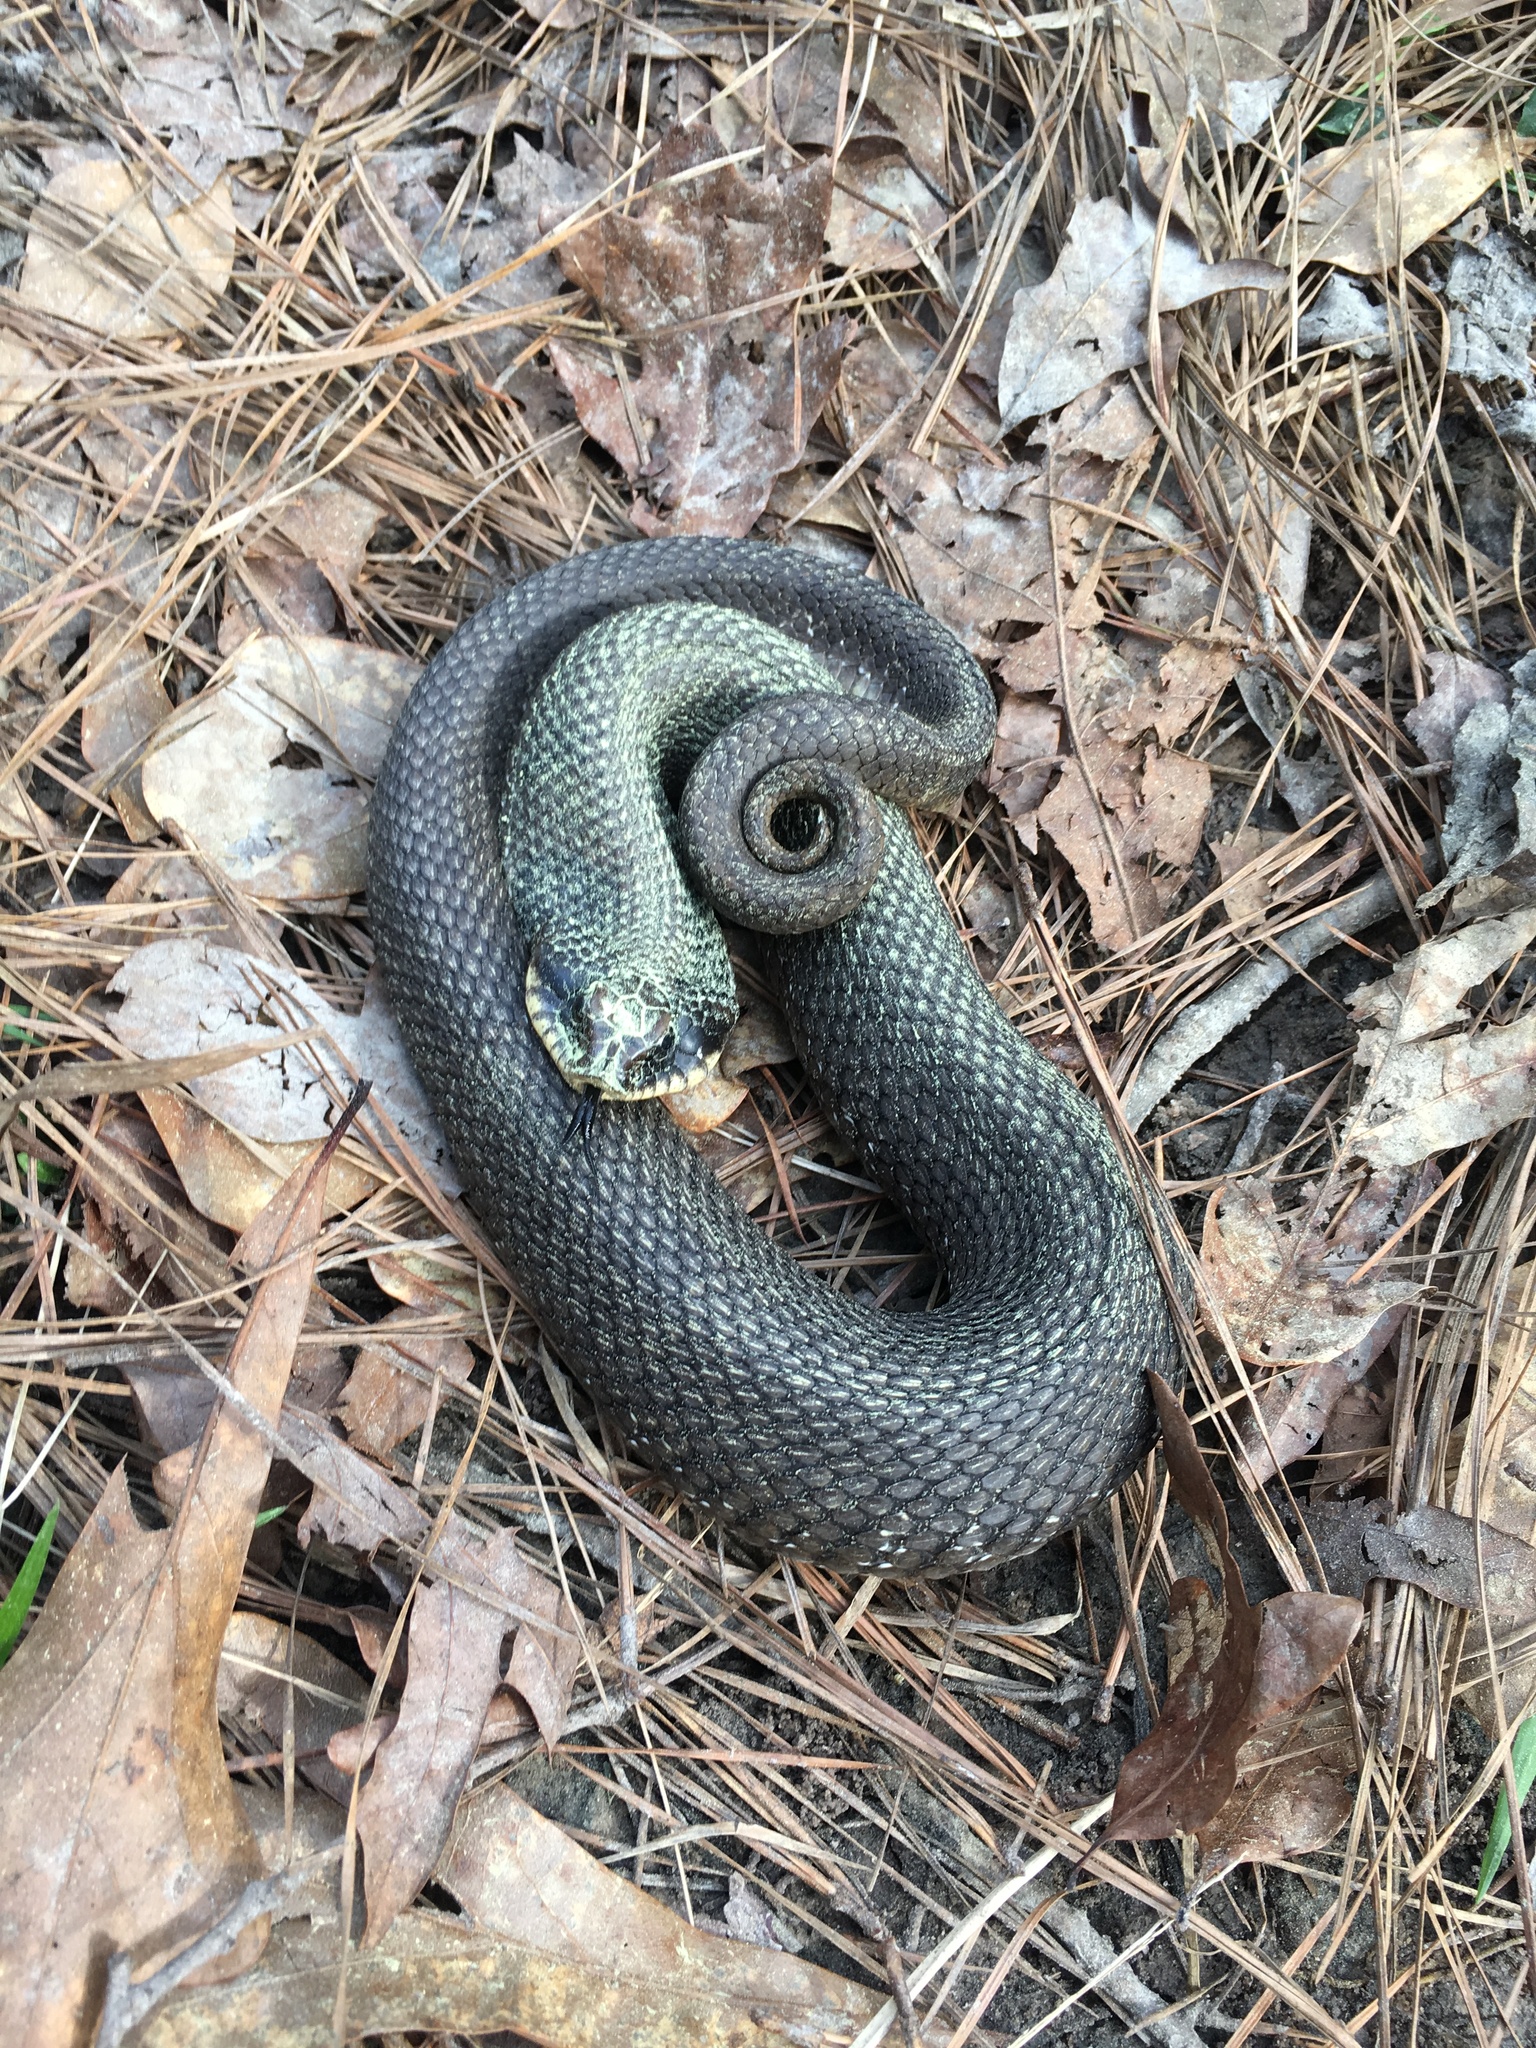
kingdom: Animalia
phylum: Chordata
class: Squamata
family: Colubridae
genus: Heterodon
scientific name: Heterodon platirhinos
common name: Eastern hognose snake
